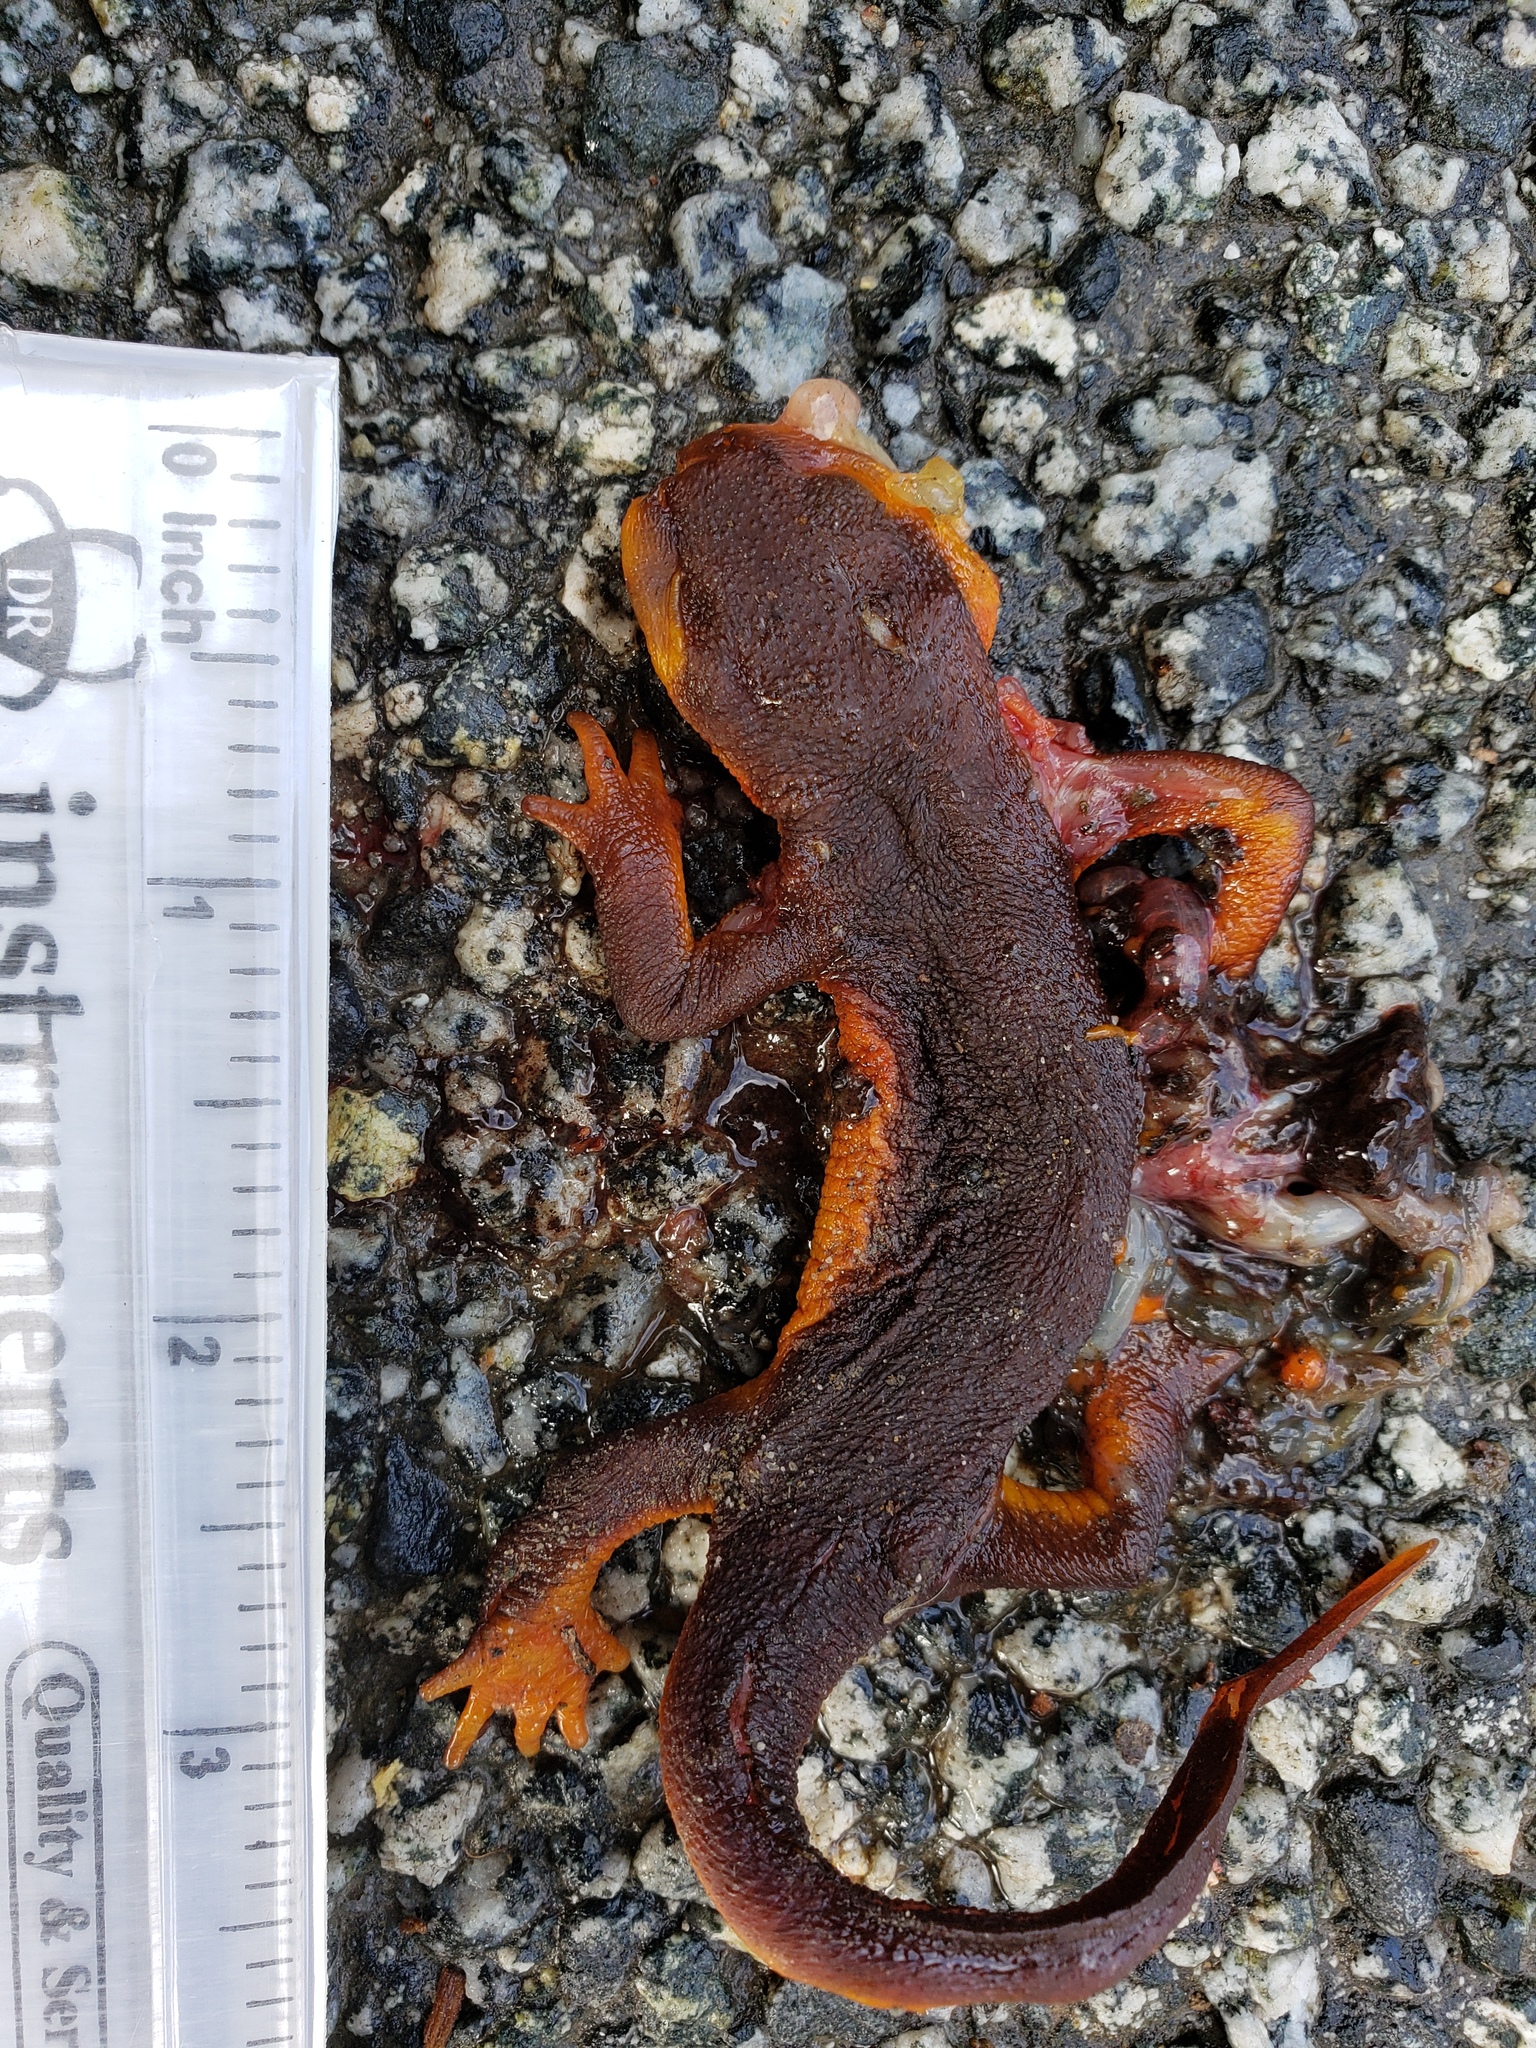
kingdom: Animalia
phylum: Chordata
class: Amphibia
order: Caudata
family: Salamandridae
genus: Taricha
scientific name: Taricha torosa
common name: California newt
